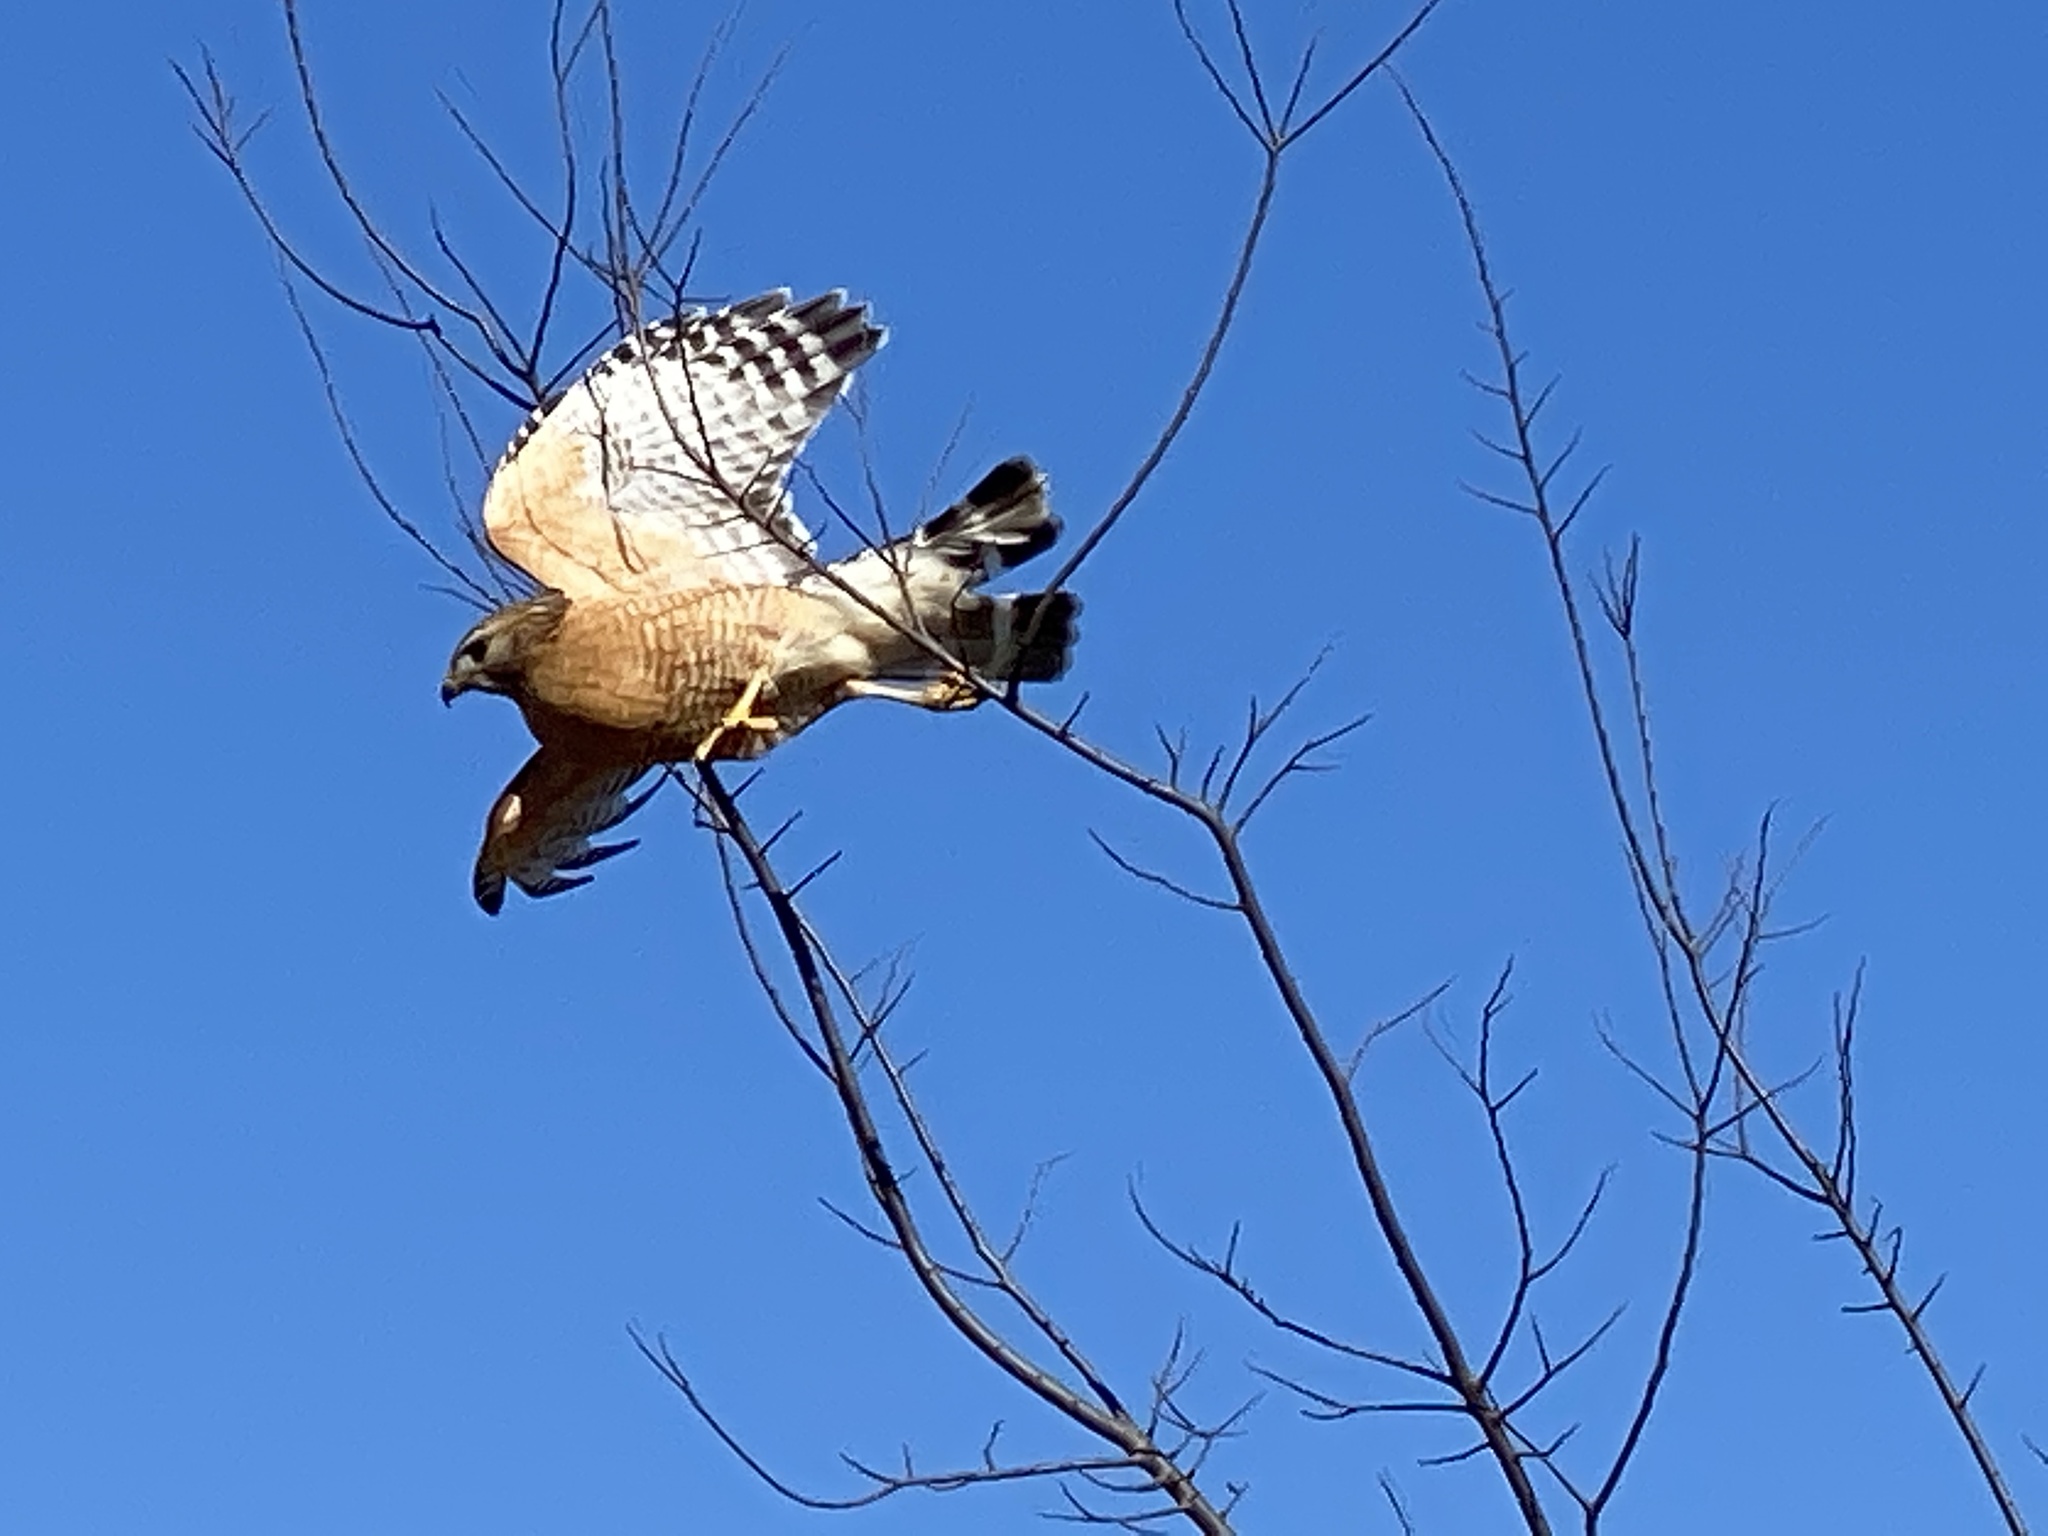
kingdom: Animalia
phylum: Chordata
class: Aves
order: Accipitriformes
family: Accipitridae
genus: Buteo
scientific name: Buteo lineatus
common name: Red-shouldered hawk
